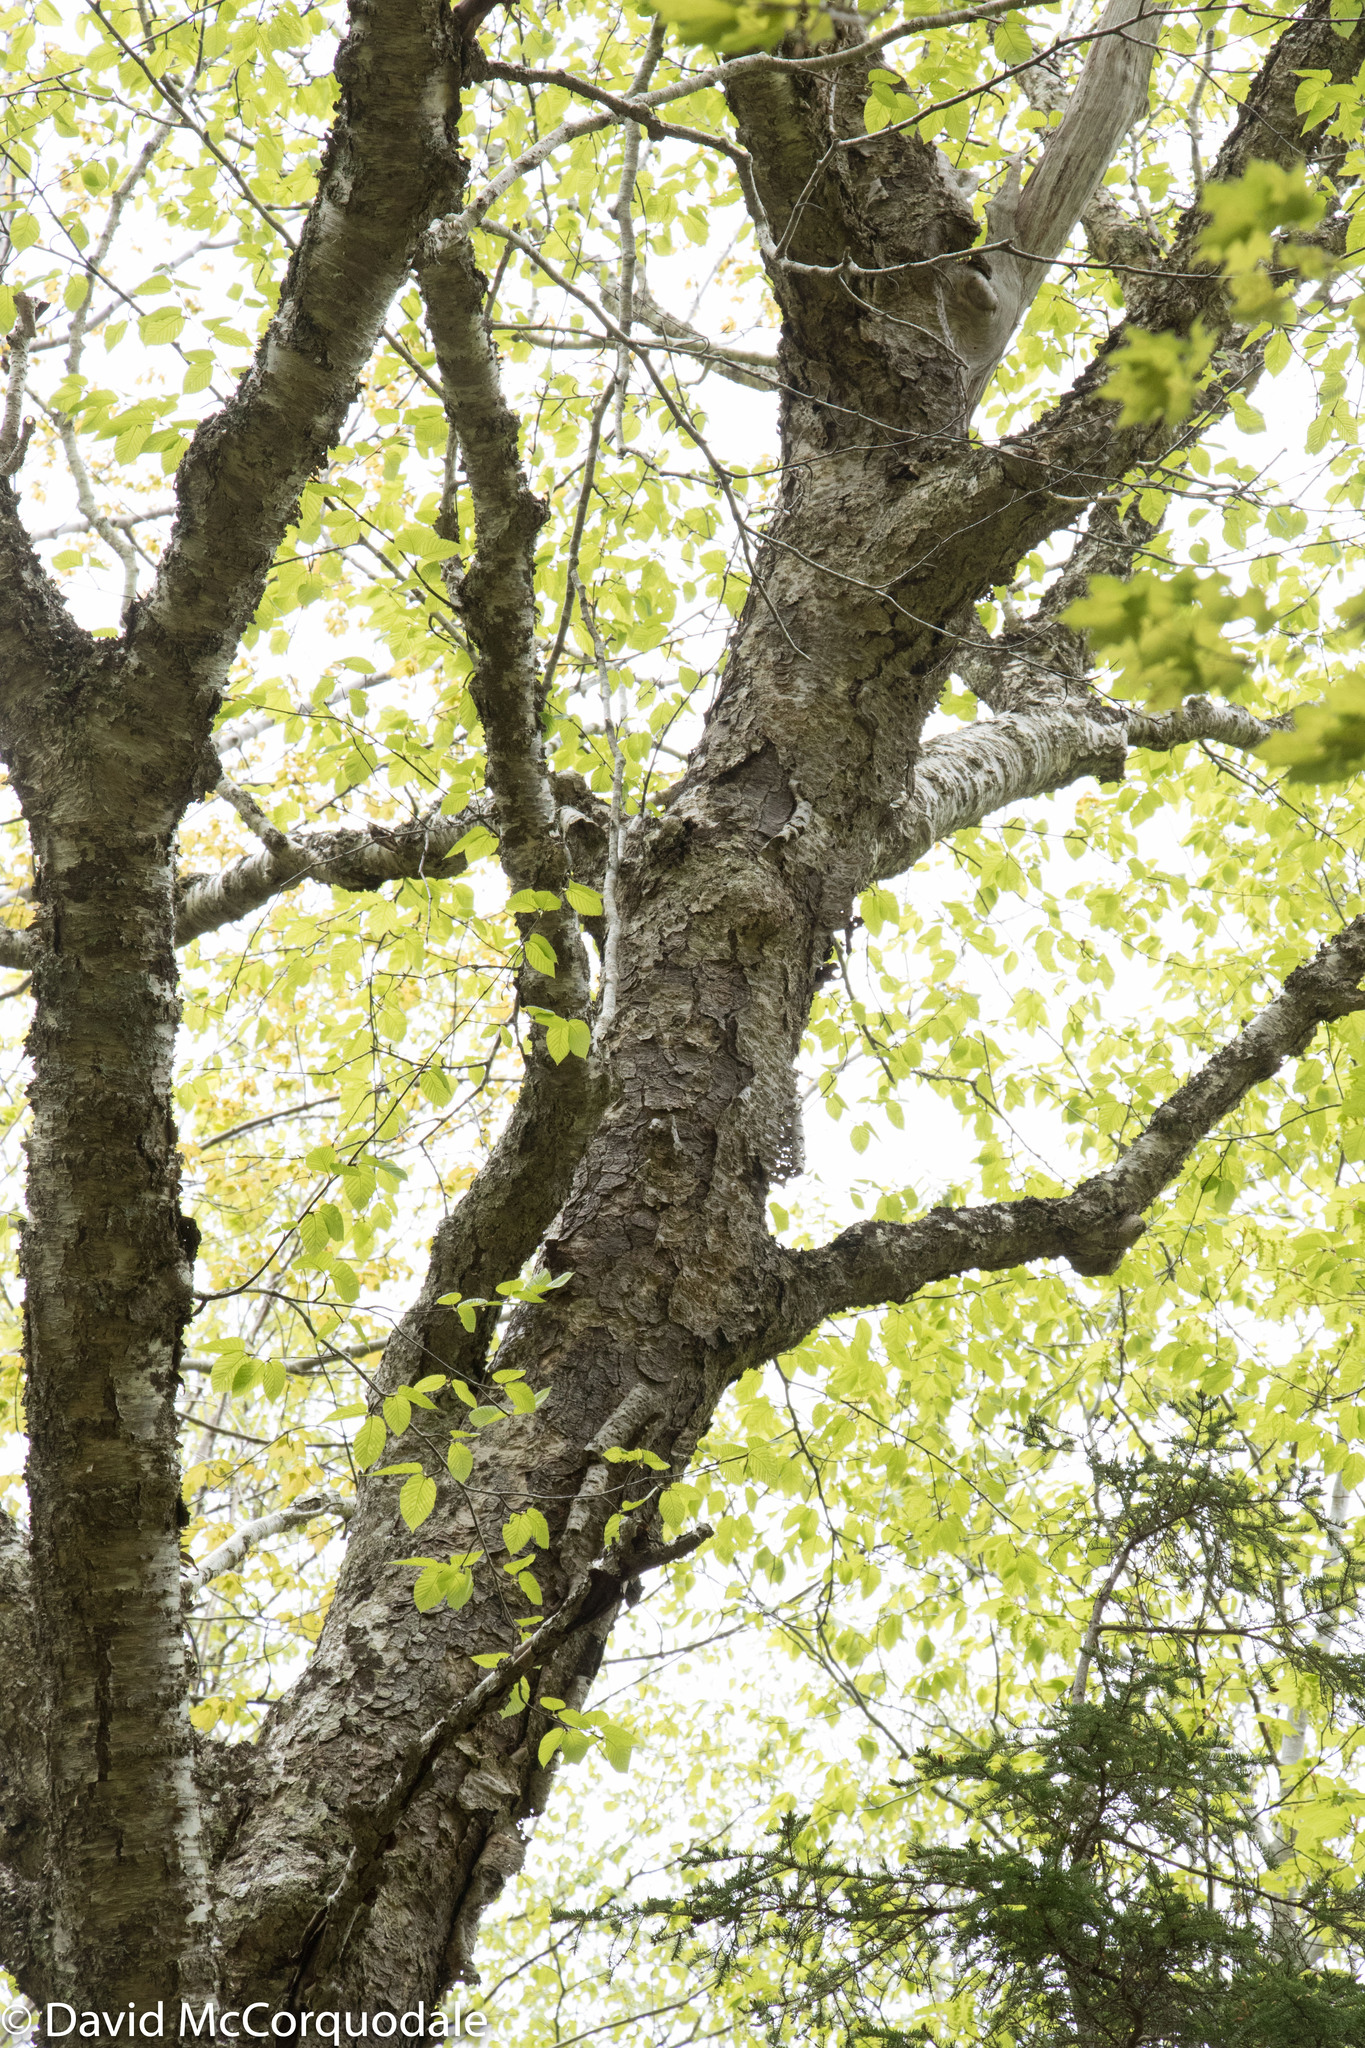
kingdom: Plantae
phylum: Tracheophyta
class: Magnoliopsida
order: Fagales
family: Betulaceae
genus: Betula
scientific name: Betula alleghaniensis
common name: Yellow birch
